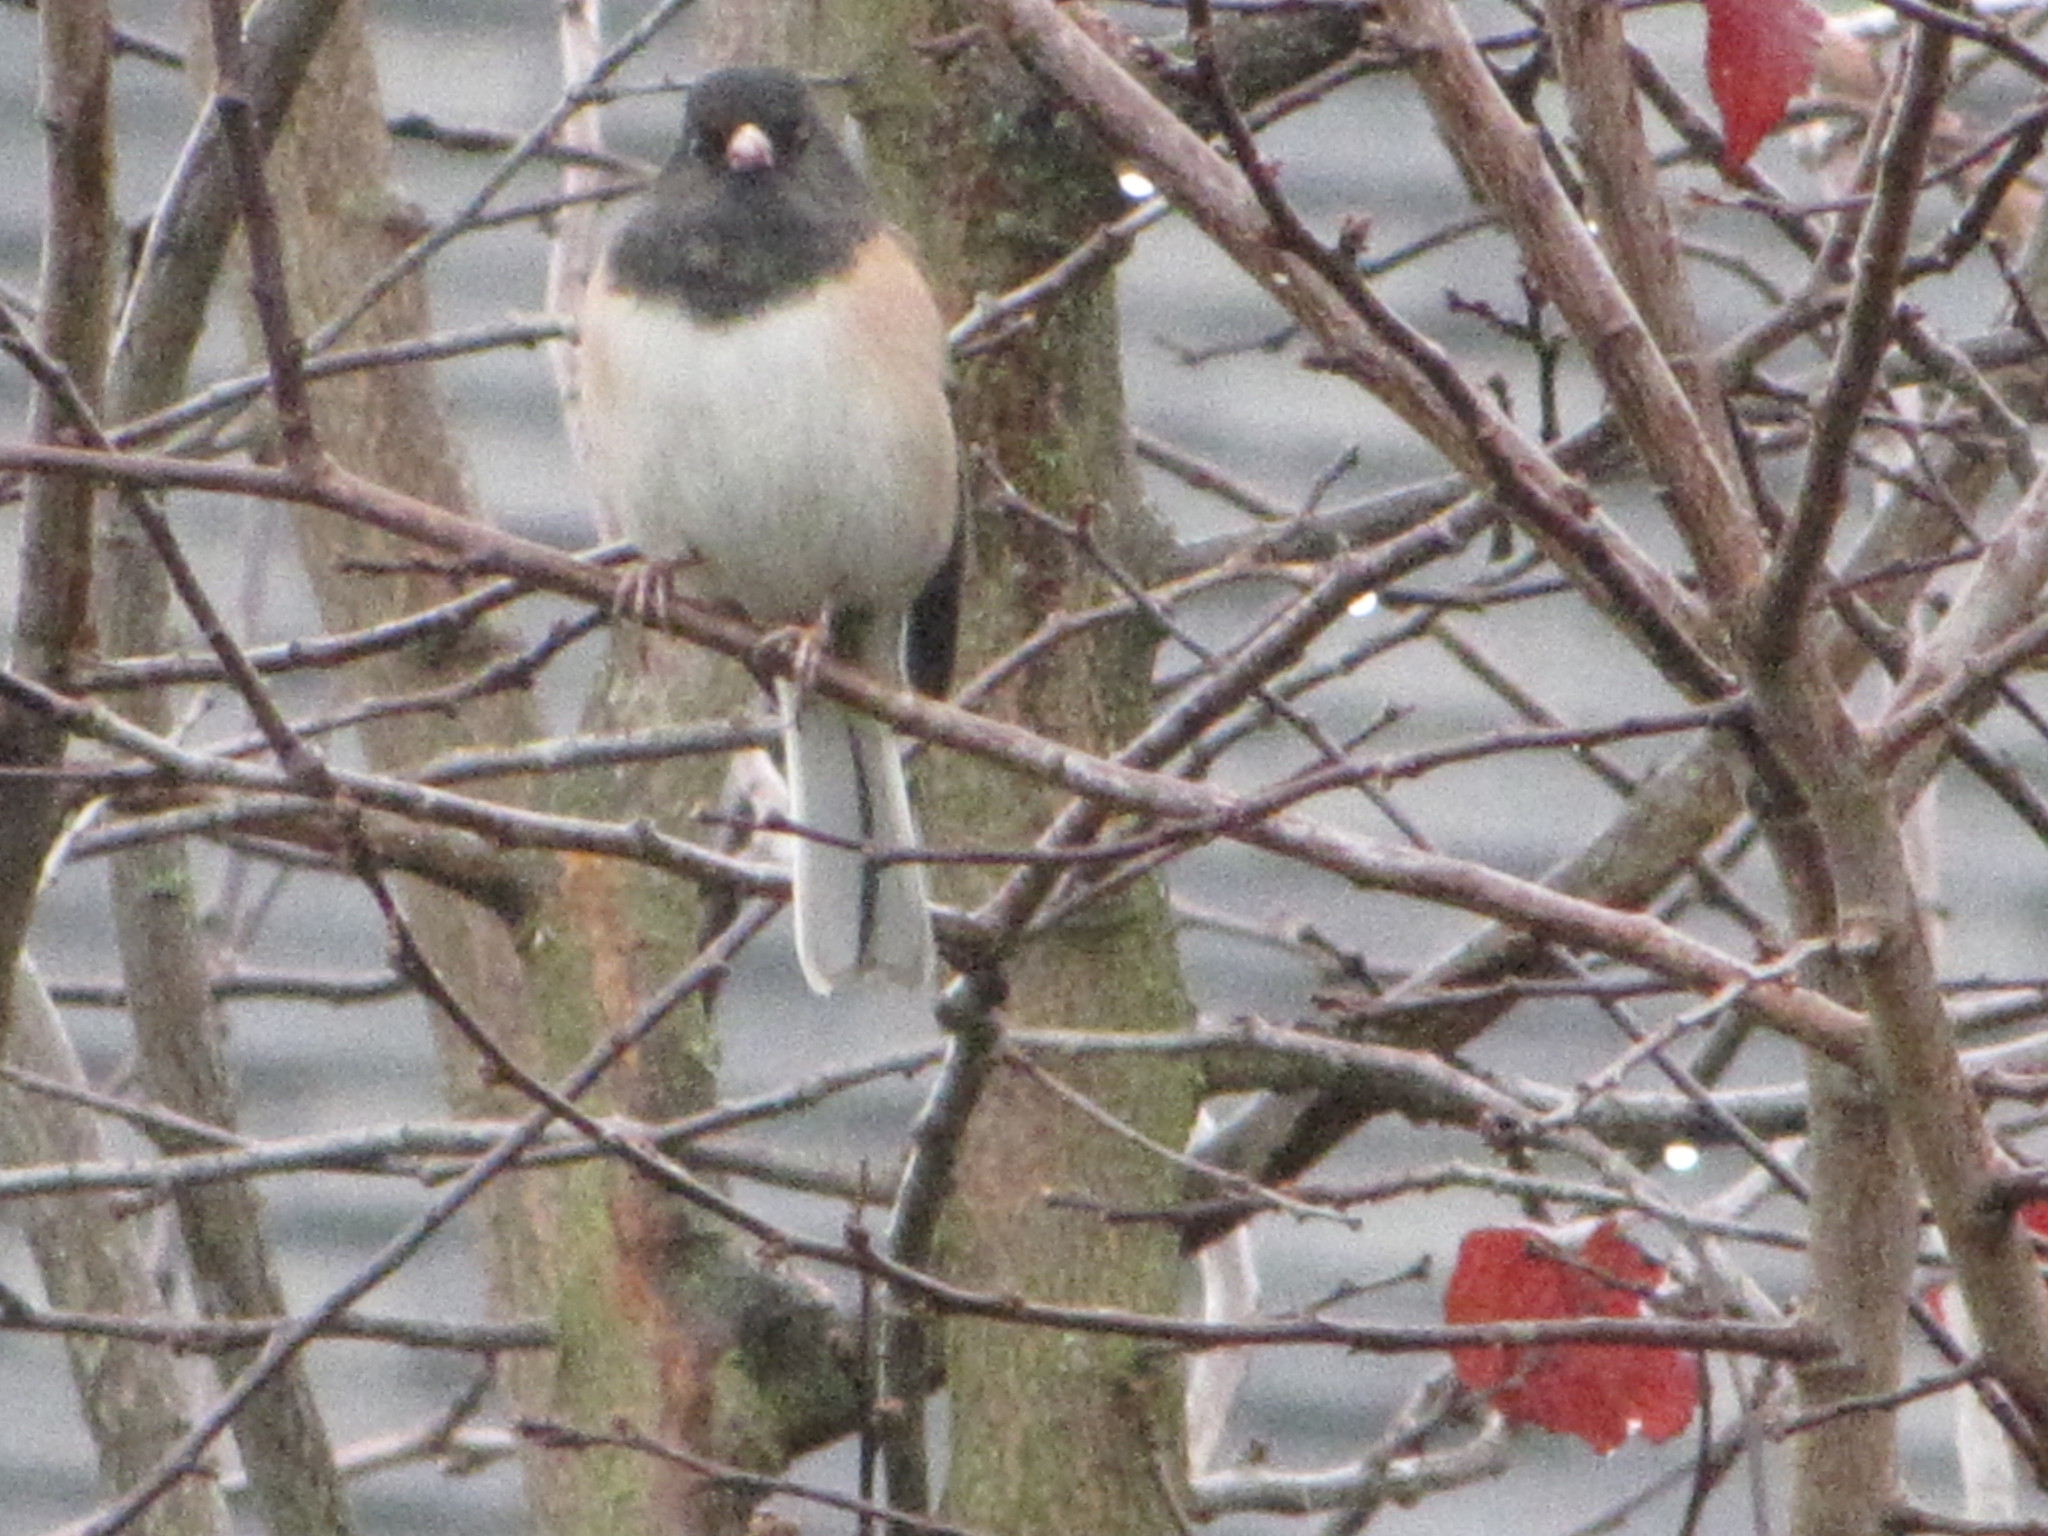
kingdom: Animalia
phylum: Chordata
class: Aves
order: Passeriformes
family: Passerellidae
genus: Junco
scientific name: Junco hyemalis
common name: Dark-eyed junco
